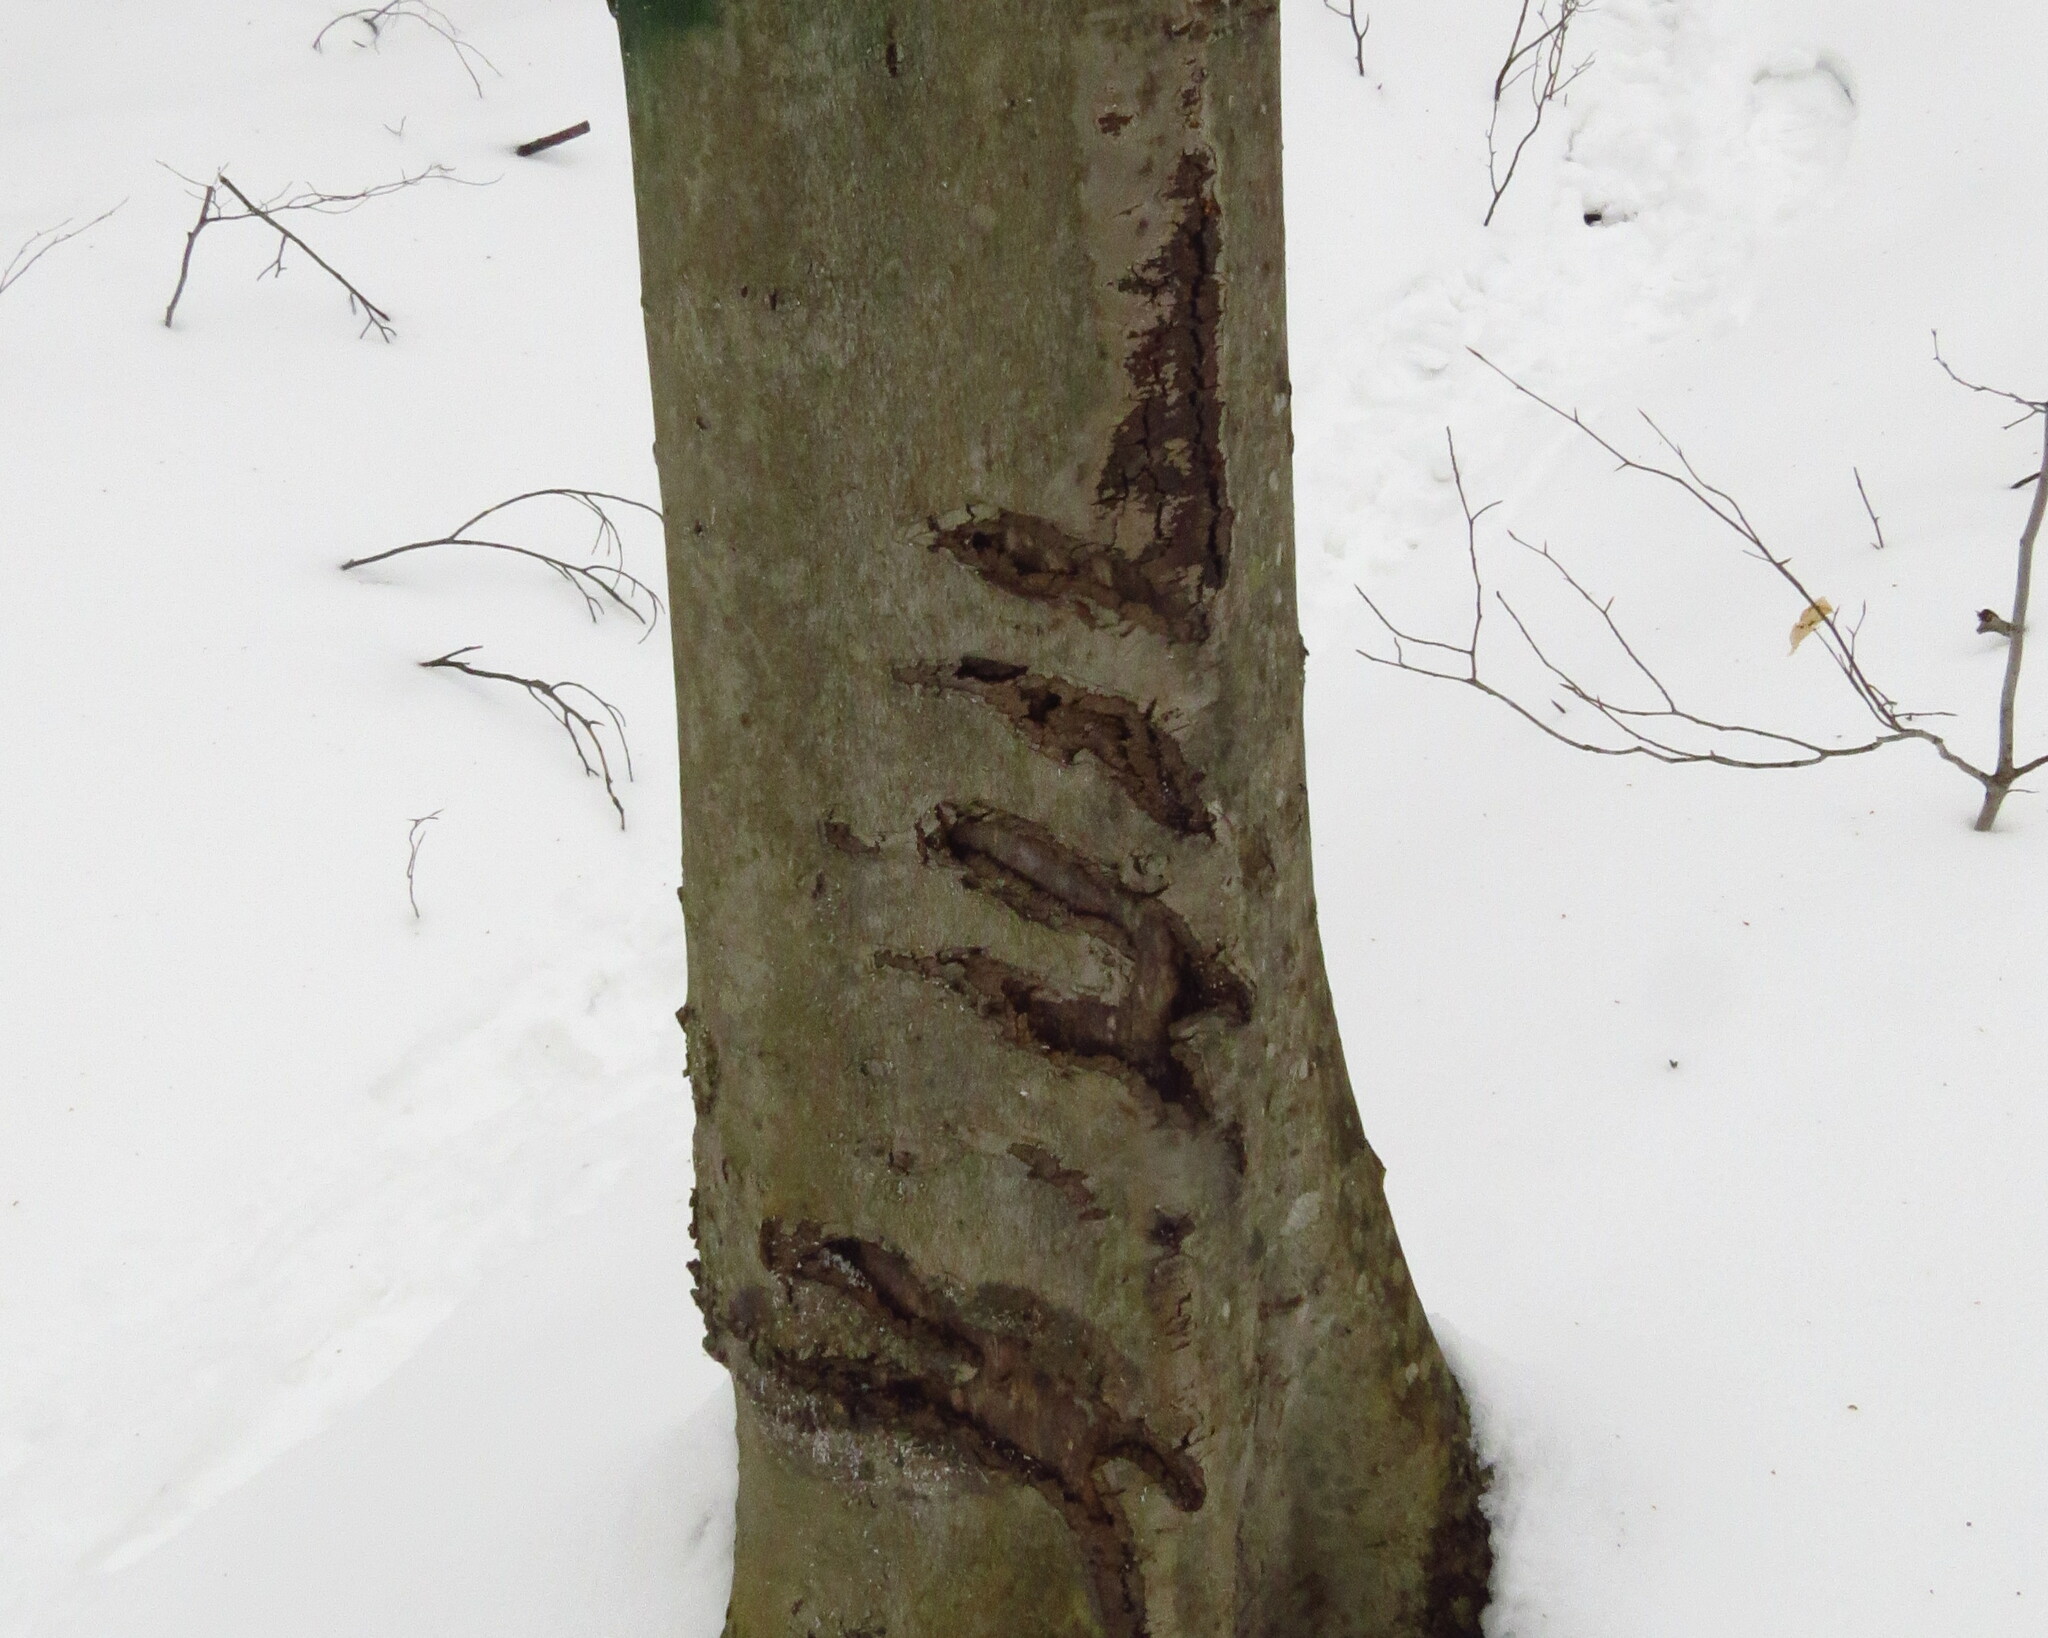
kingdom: Animalia
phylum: Chordata
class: Mammalia
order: Carnivora
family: Ursidae
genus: Ursus
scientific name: Ursus americanus
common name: American black bear
